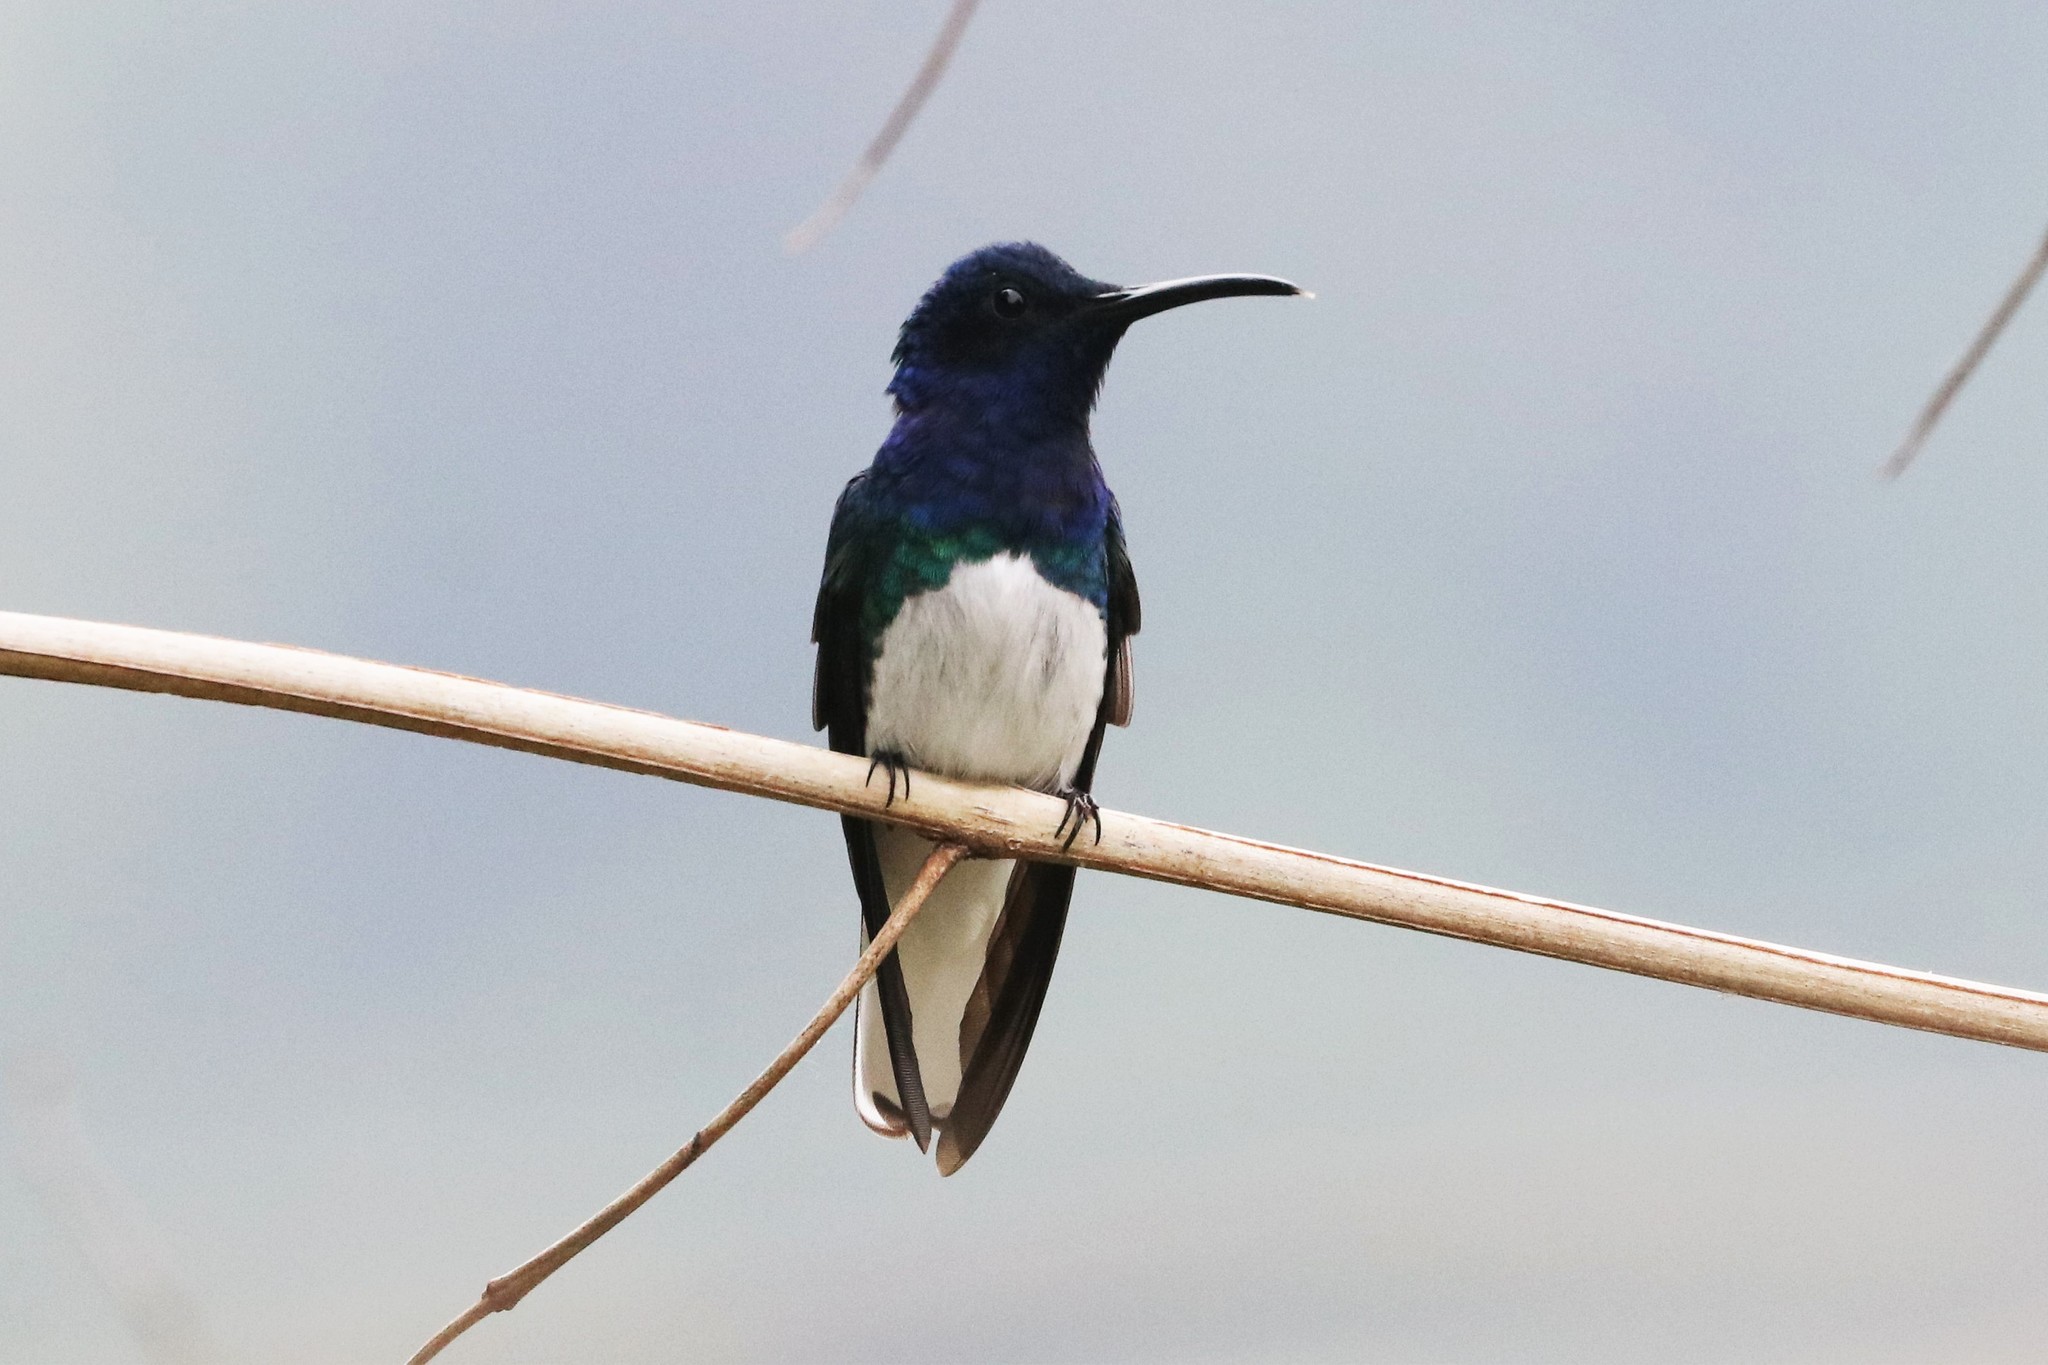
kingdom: Animalia
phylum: Chordata
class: Aves
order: Apodiformes
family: Trochilidae
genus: Florisuga
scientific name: Florisuga mellivora
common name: White-necked jacobin
